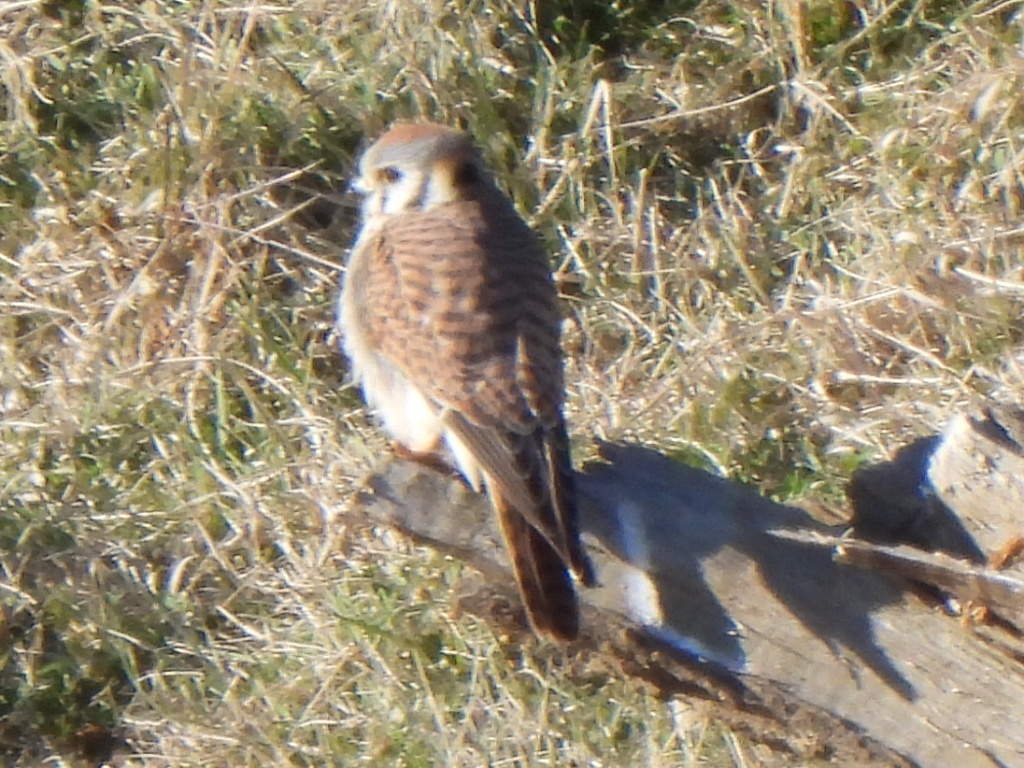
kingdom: Animalia
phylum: Chordata
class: Aves
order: Falconiformes
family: Falconidae
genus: Falco
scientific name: Falco sparverius
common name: American kestrel
